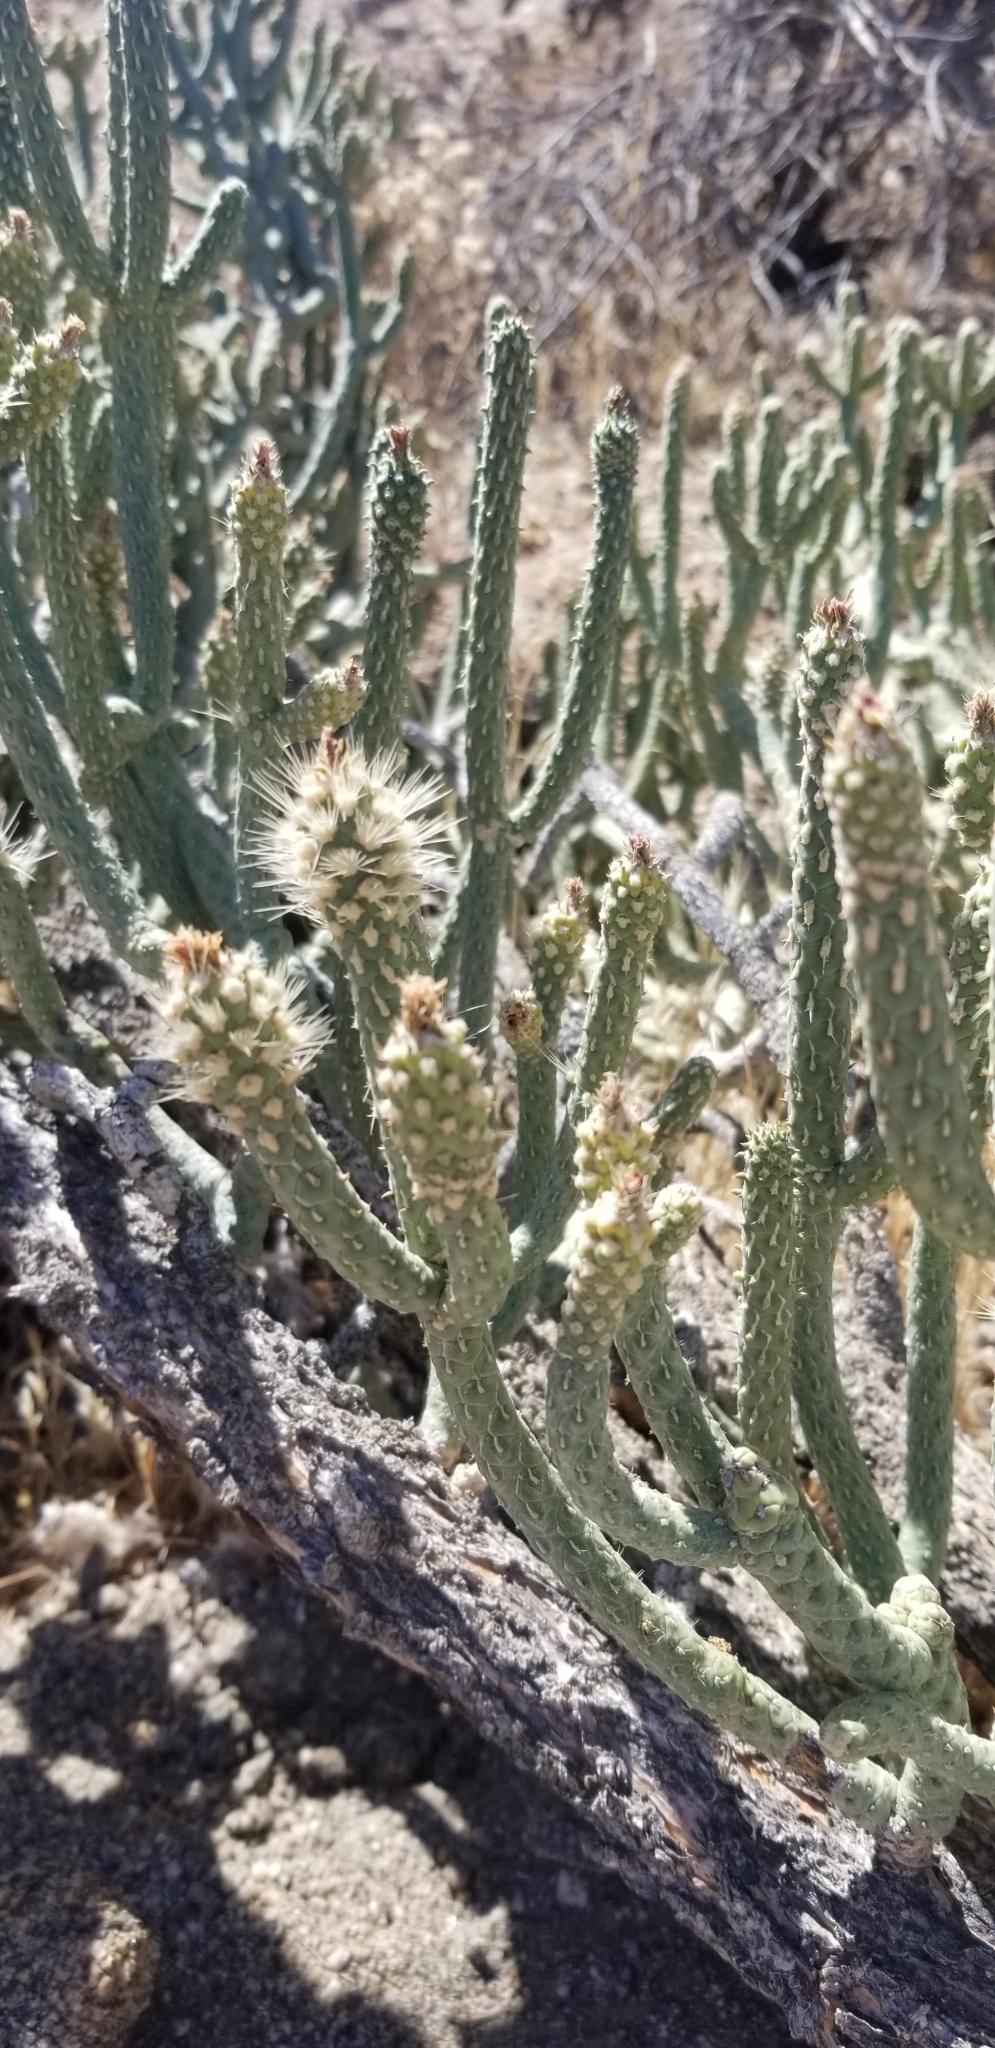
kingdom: Plantae
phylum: Tracheophyta
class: Magnoliopsida
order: Caryophyllales
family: Cactaceae
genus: Cylindropuntia
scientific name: Cylindropuntia ramosissima
